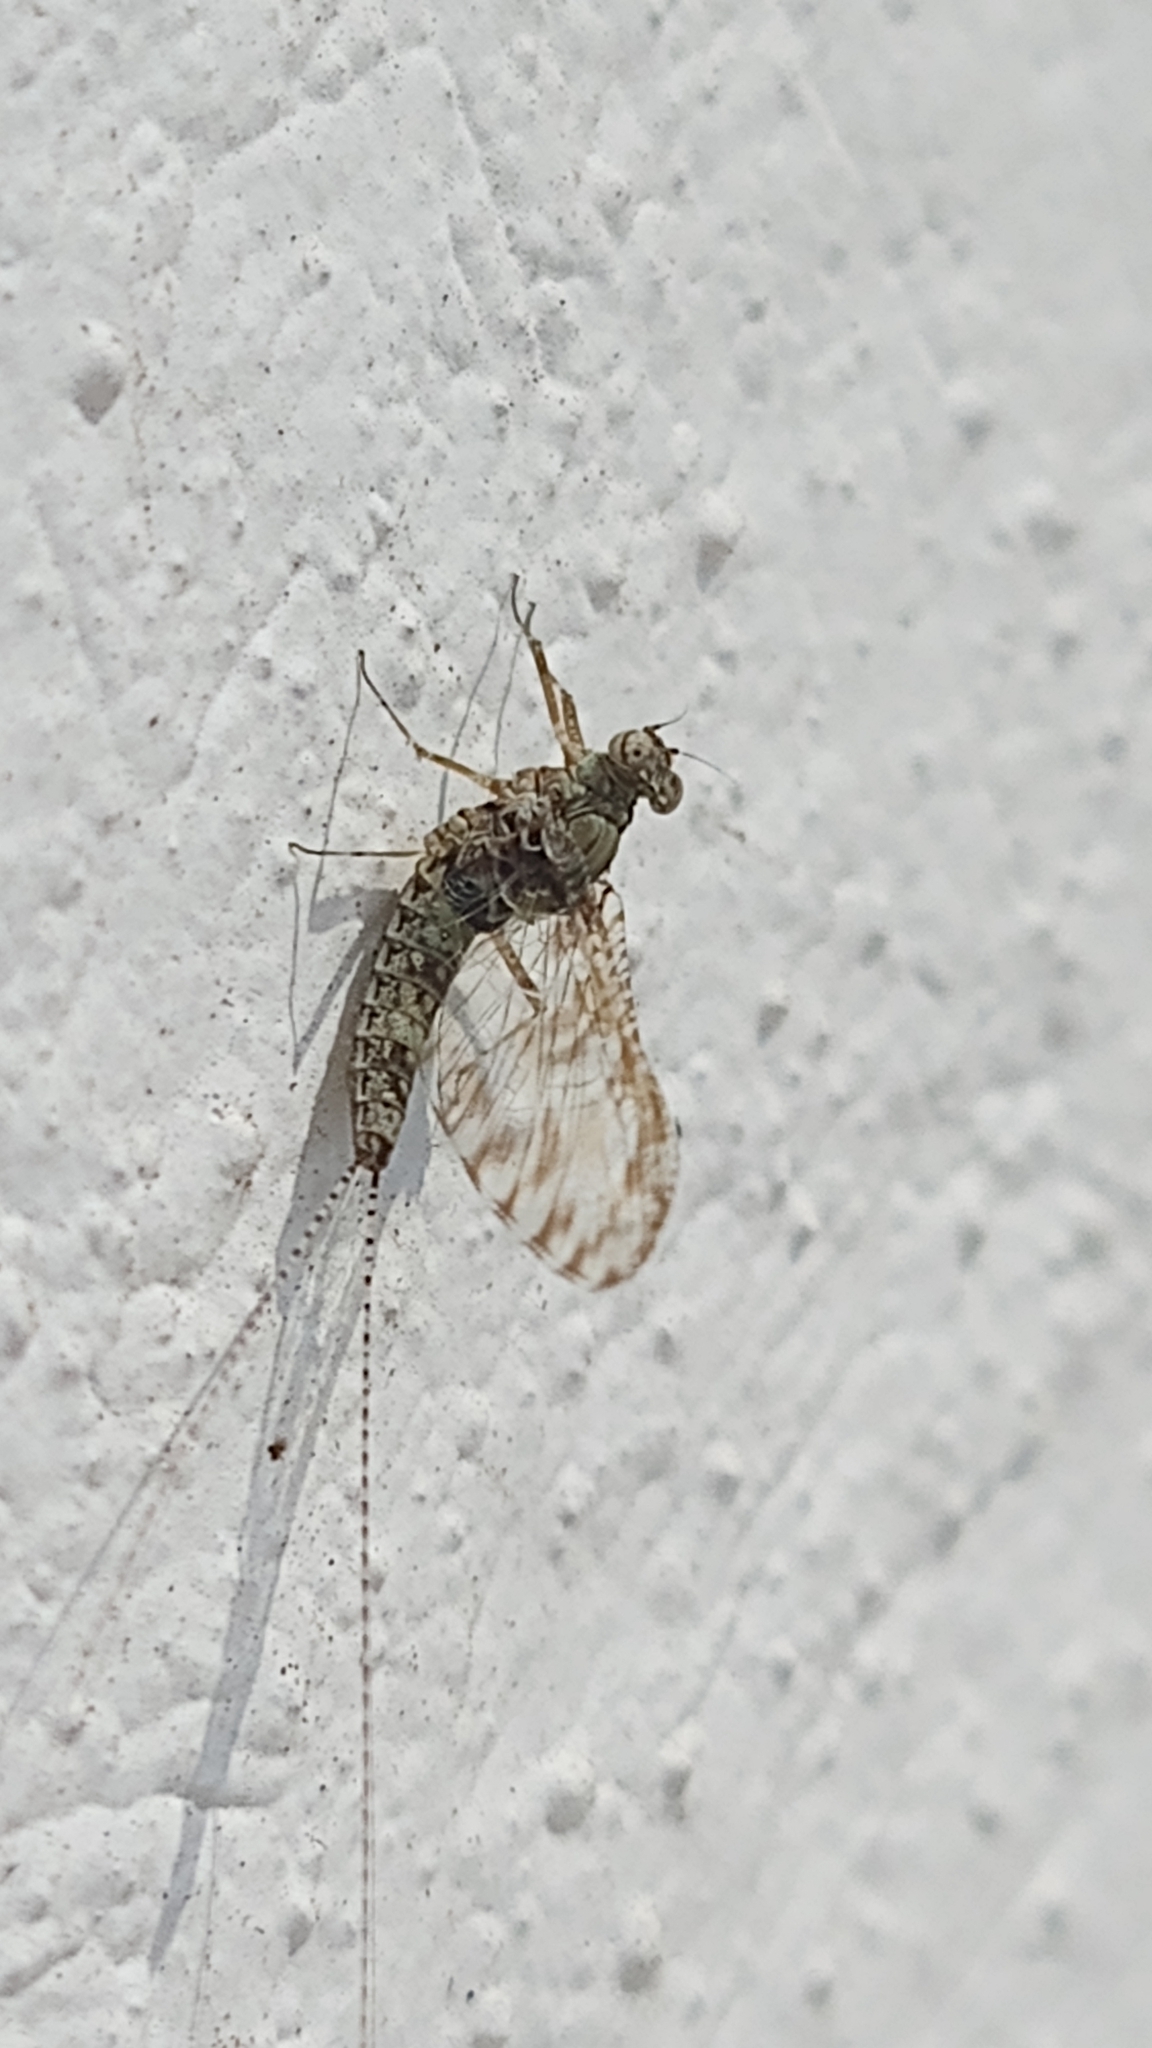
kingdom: Animalia
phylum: Arthropoda
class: Insecta
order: Ephemeroptera
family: Baetidae
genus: Callibaetis
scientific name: Callibaetis pictus
